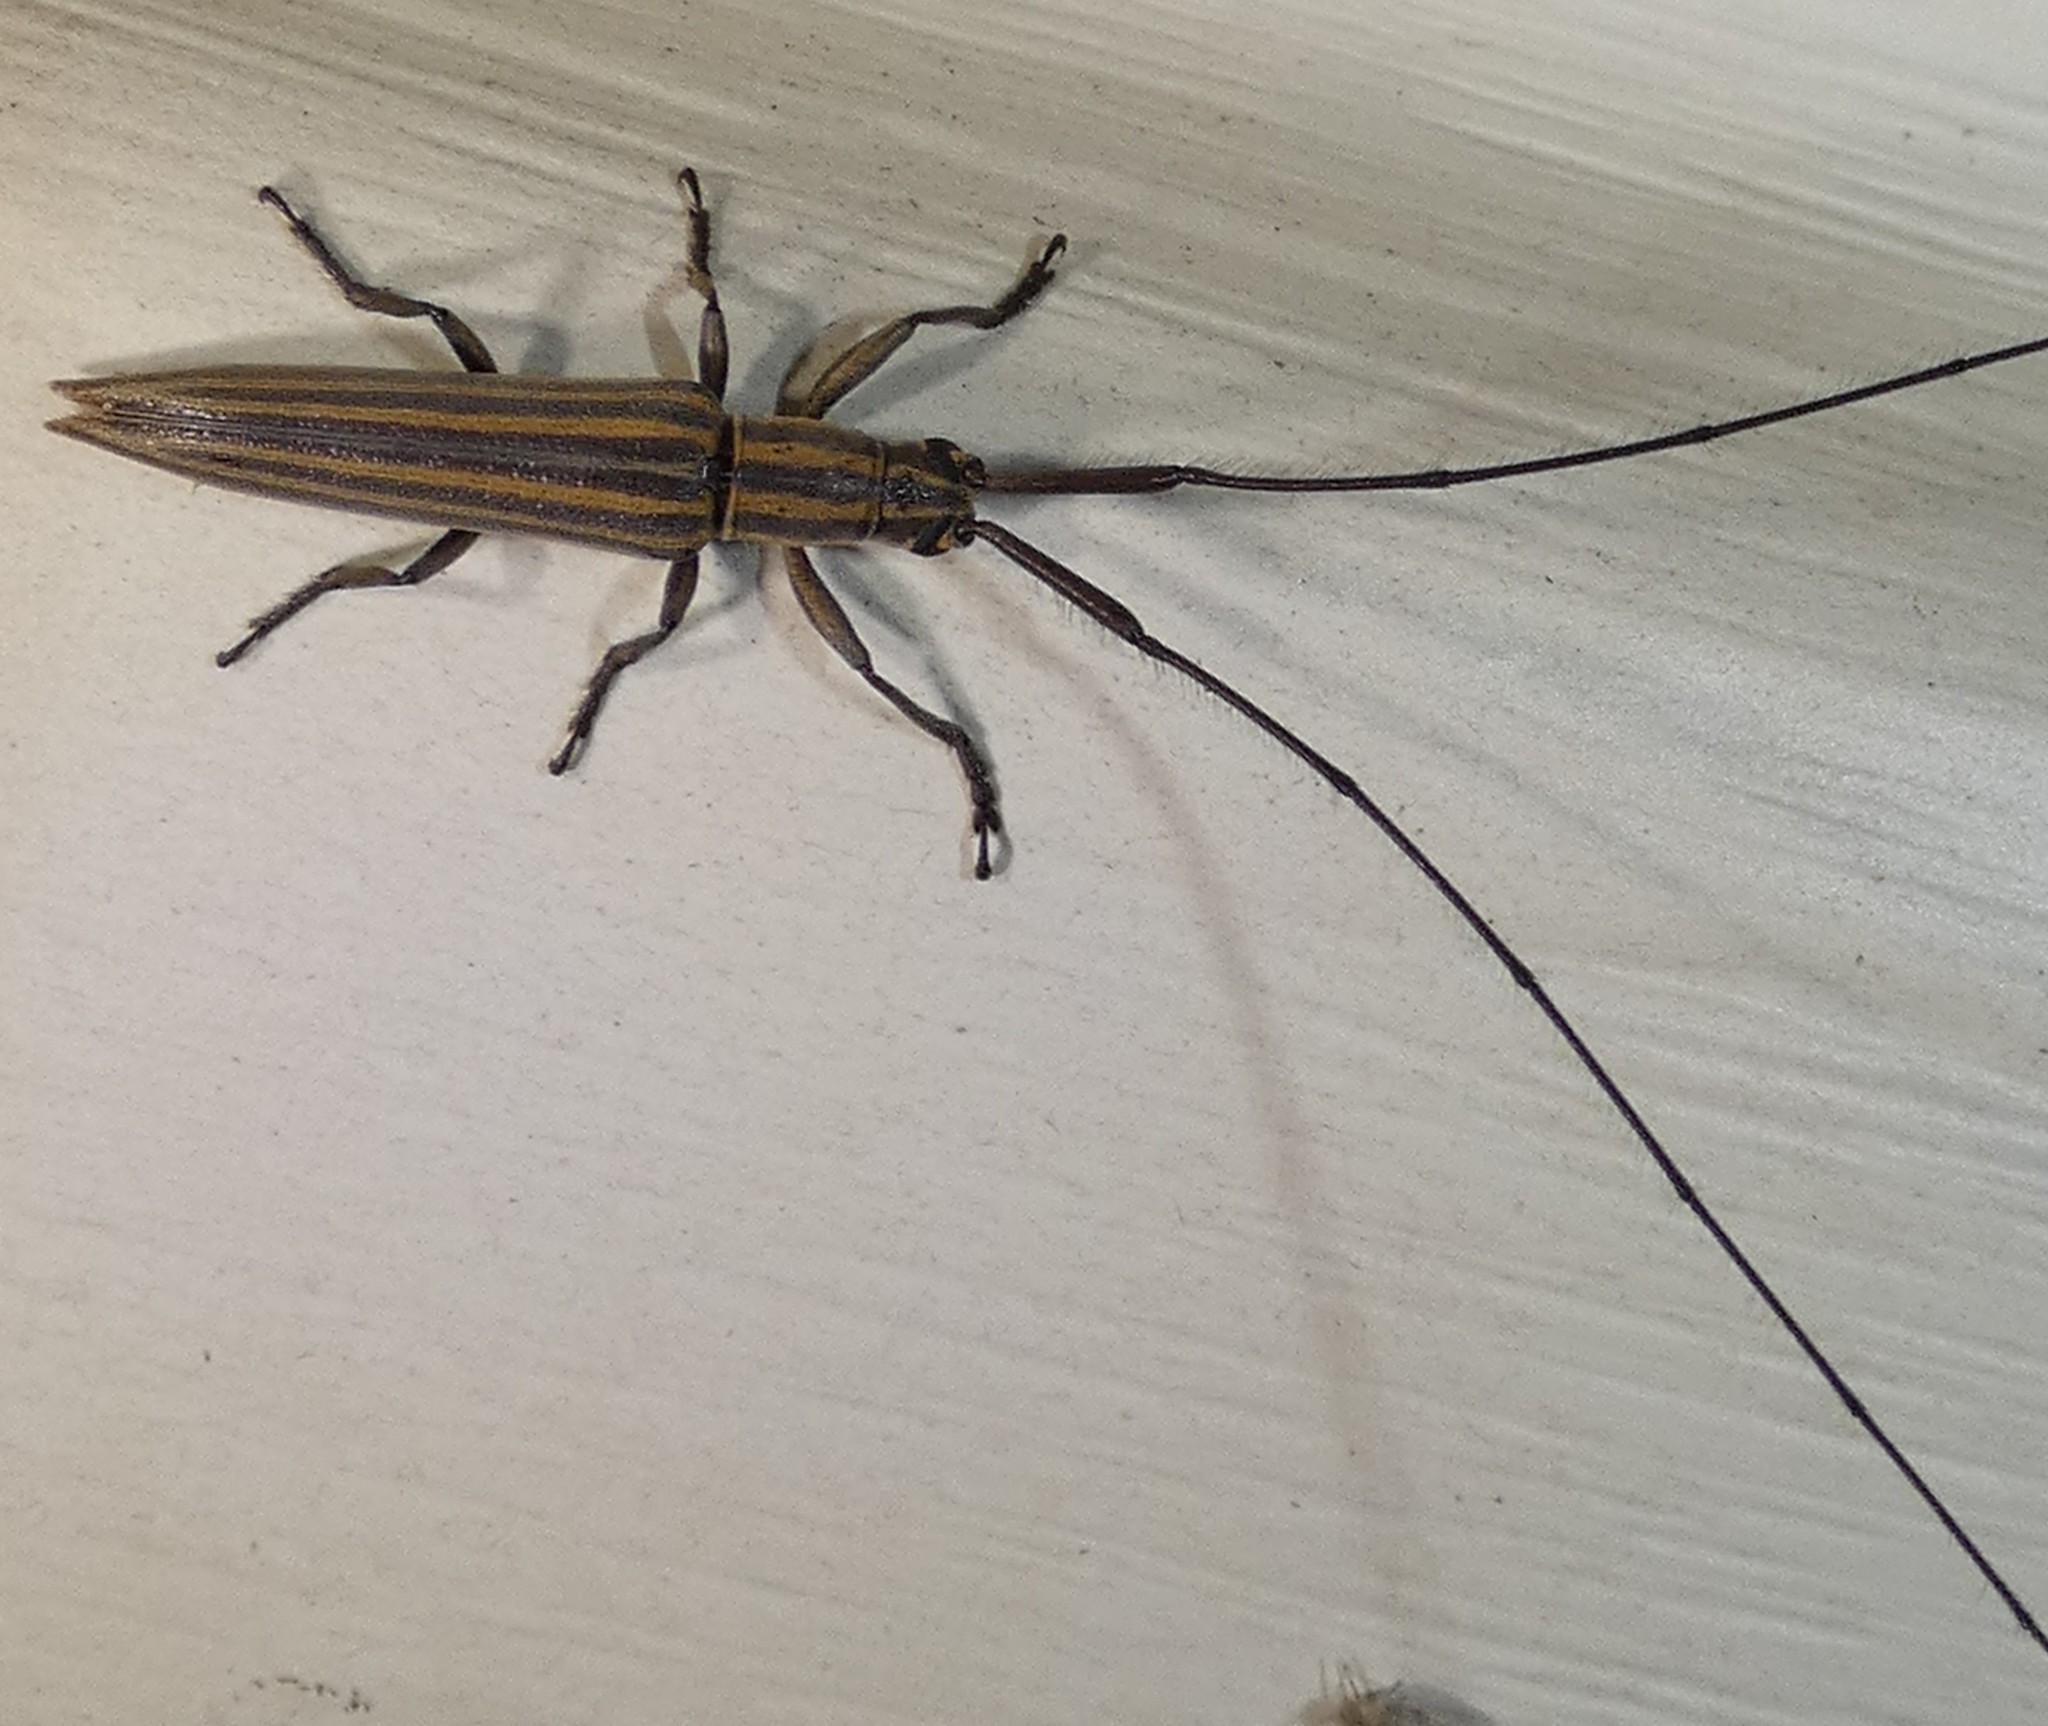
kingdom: Animalia
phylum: Arthropoda
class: Insecta
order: Coleoptera
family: Cerambycidae
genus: Hippopsis
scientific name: Hippopsis
